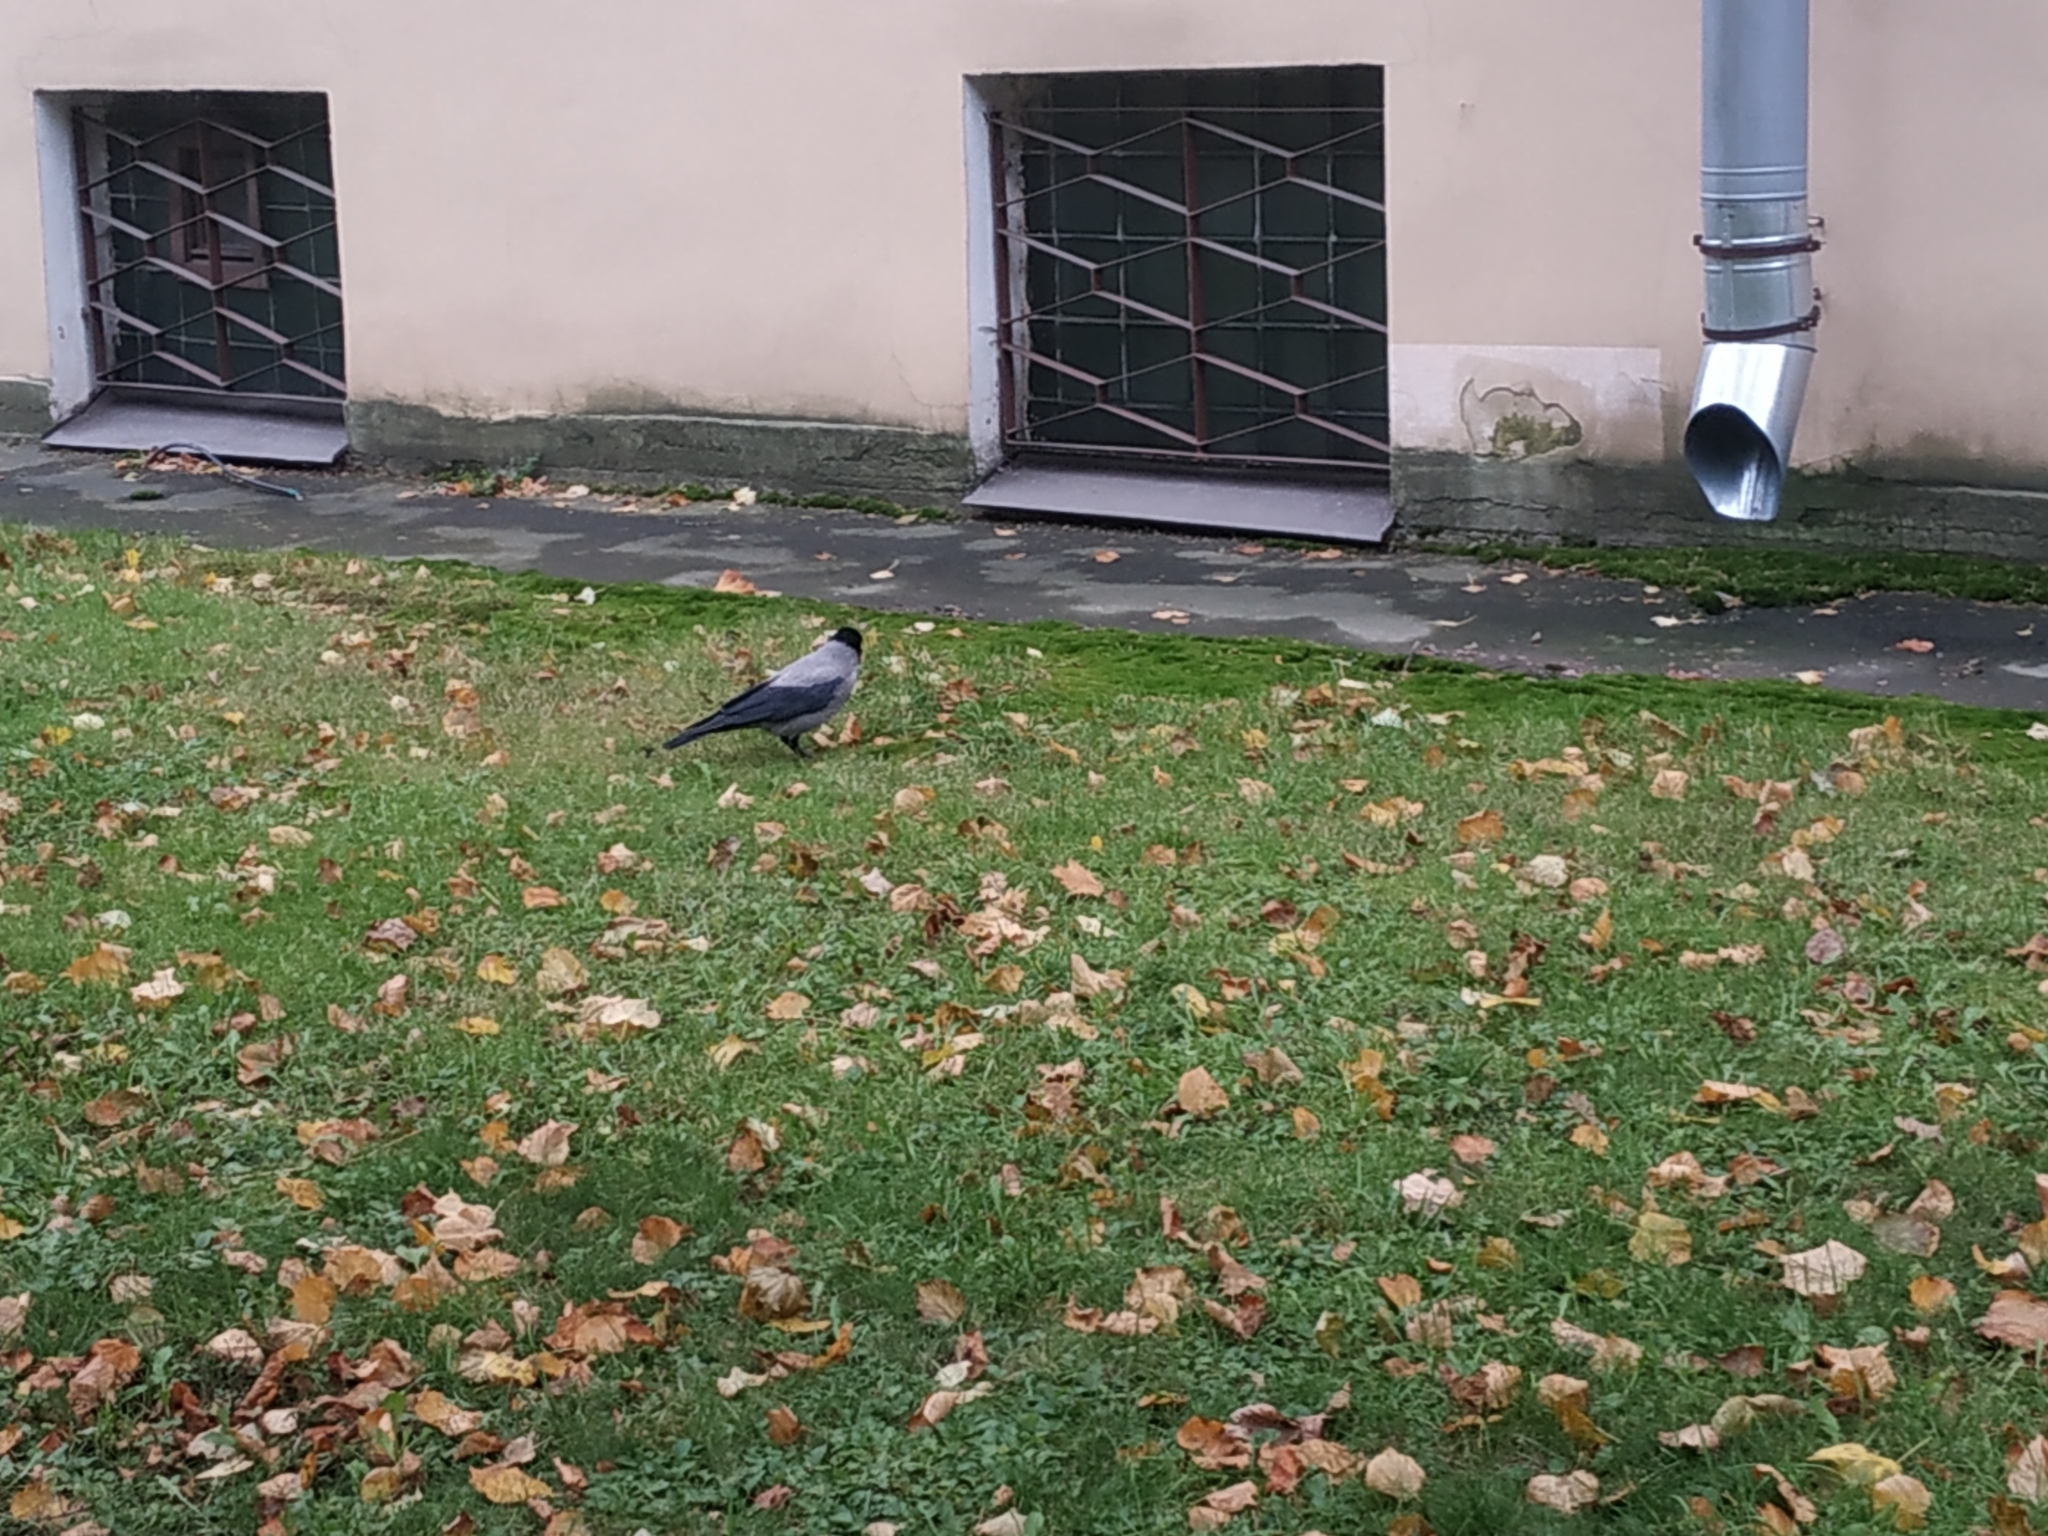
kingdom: Animalia
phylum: Chordata
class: Aves
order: Passeriformes
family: Corvidae
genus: Corvus
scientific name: Corvus cornix
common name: Hooded crow
